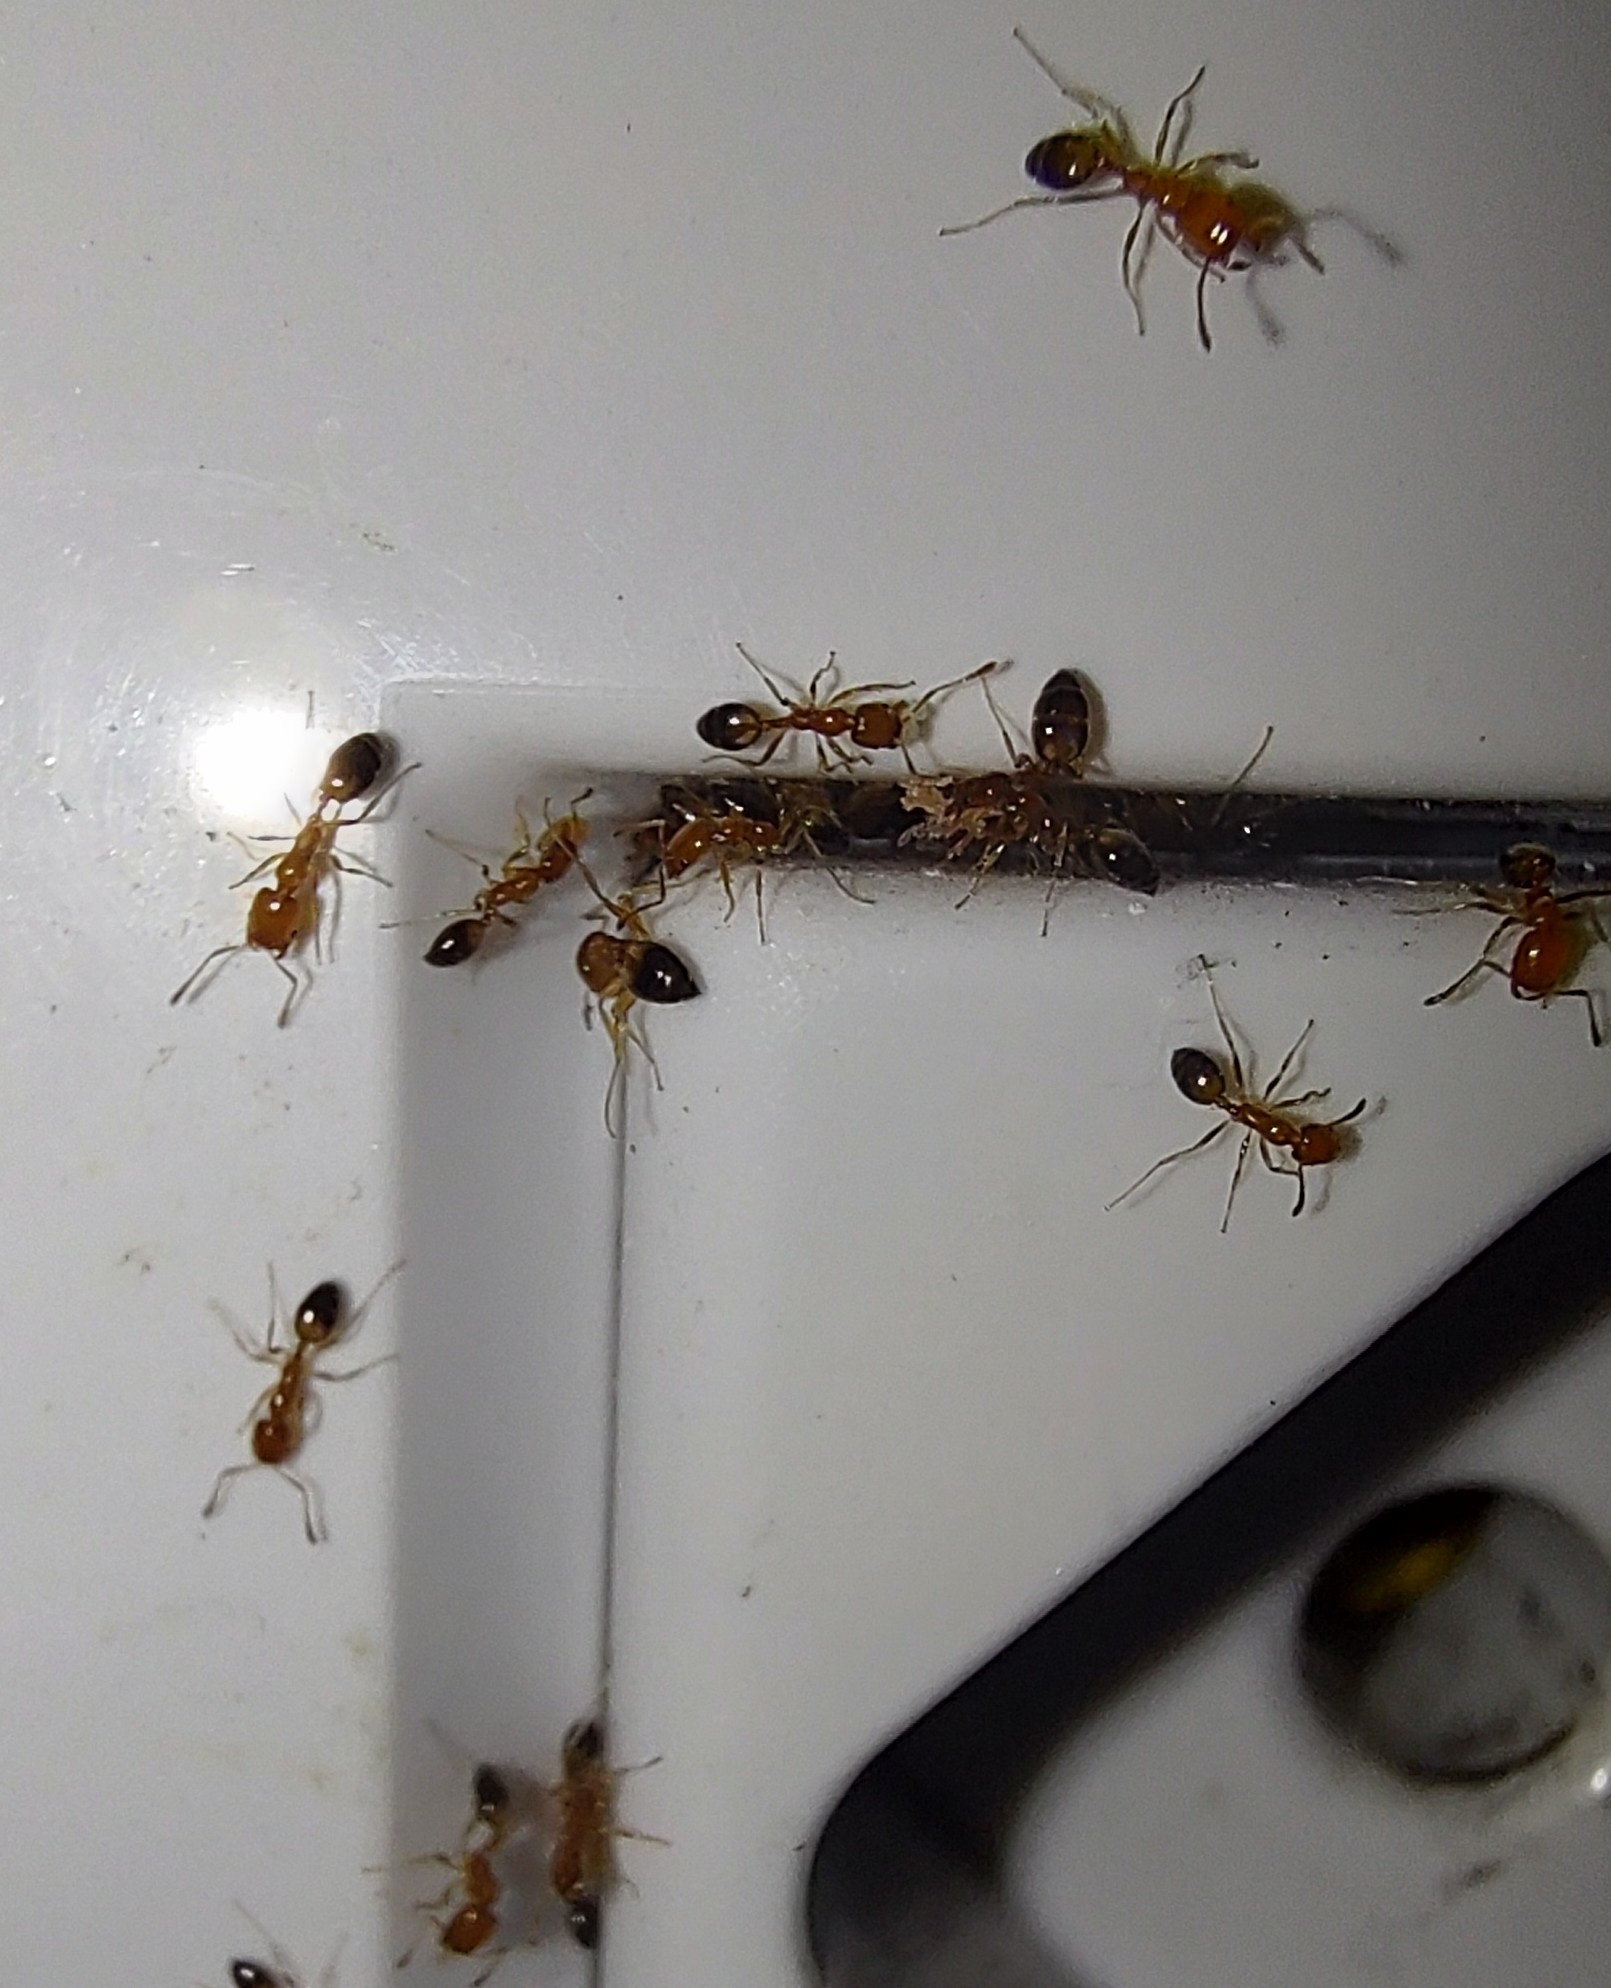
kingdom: Animalia
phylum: Arthropoda
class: Insecta
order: Hymenoptera
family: Formicidae
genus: Monomorium
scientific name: Monomorium destructor
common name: Destructive trailing ant
